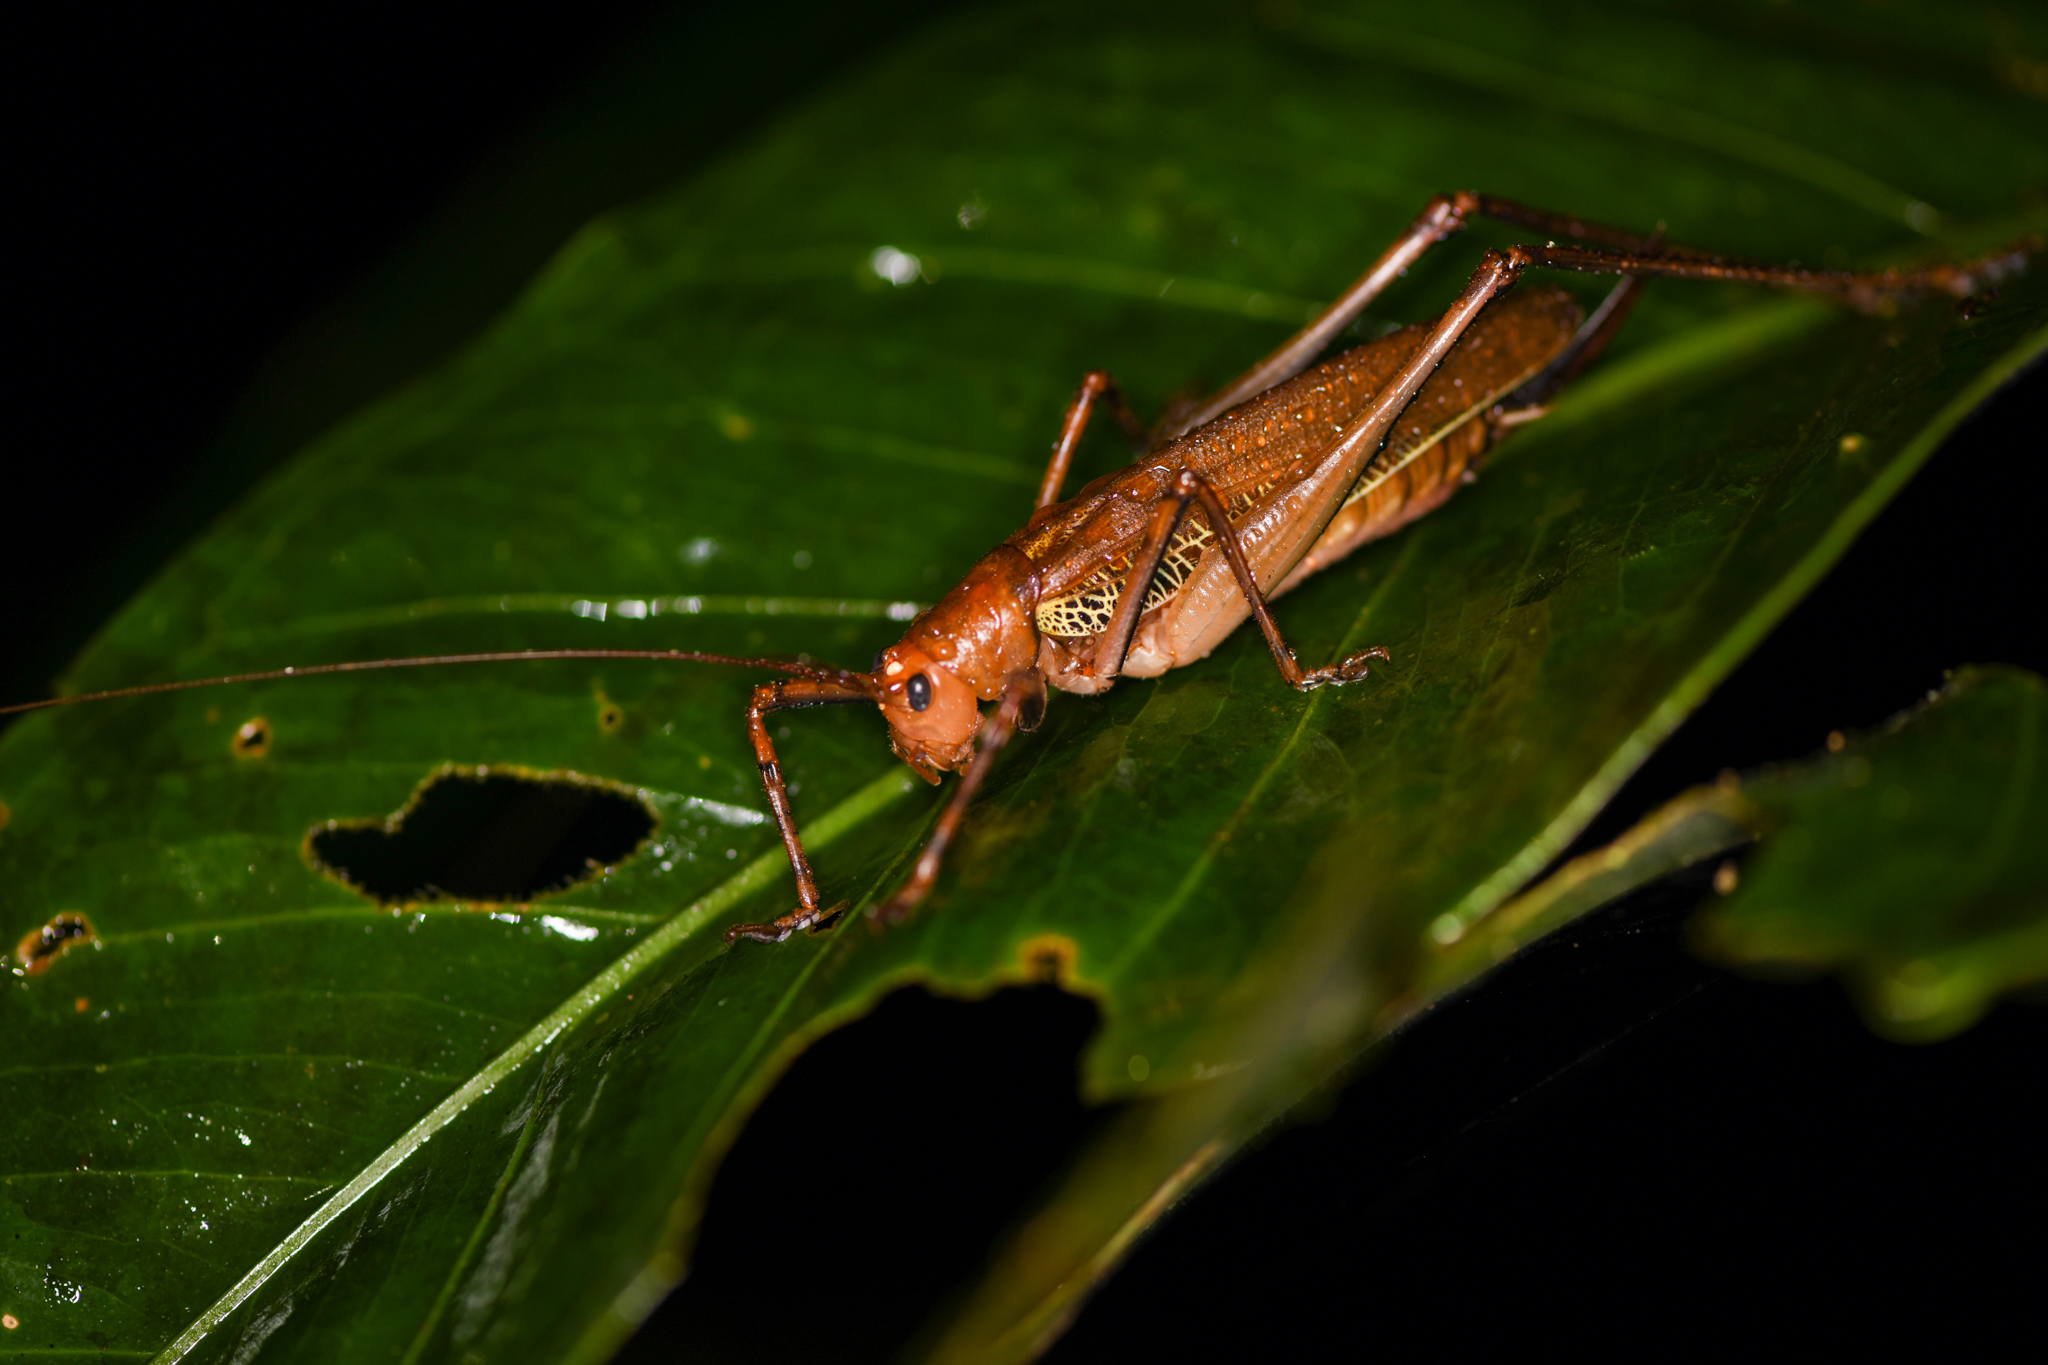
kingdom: Animalia
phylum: Arthropoda
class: Insecta
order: Orthoptera
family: Tettigoniidae
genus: Ischnomela
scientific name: Ischnomela pulchripennis
